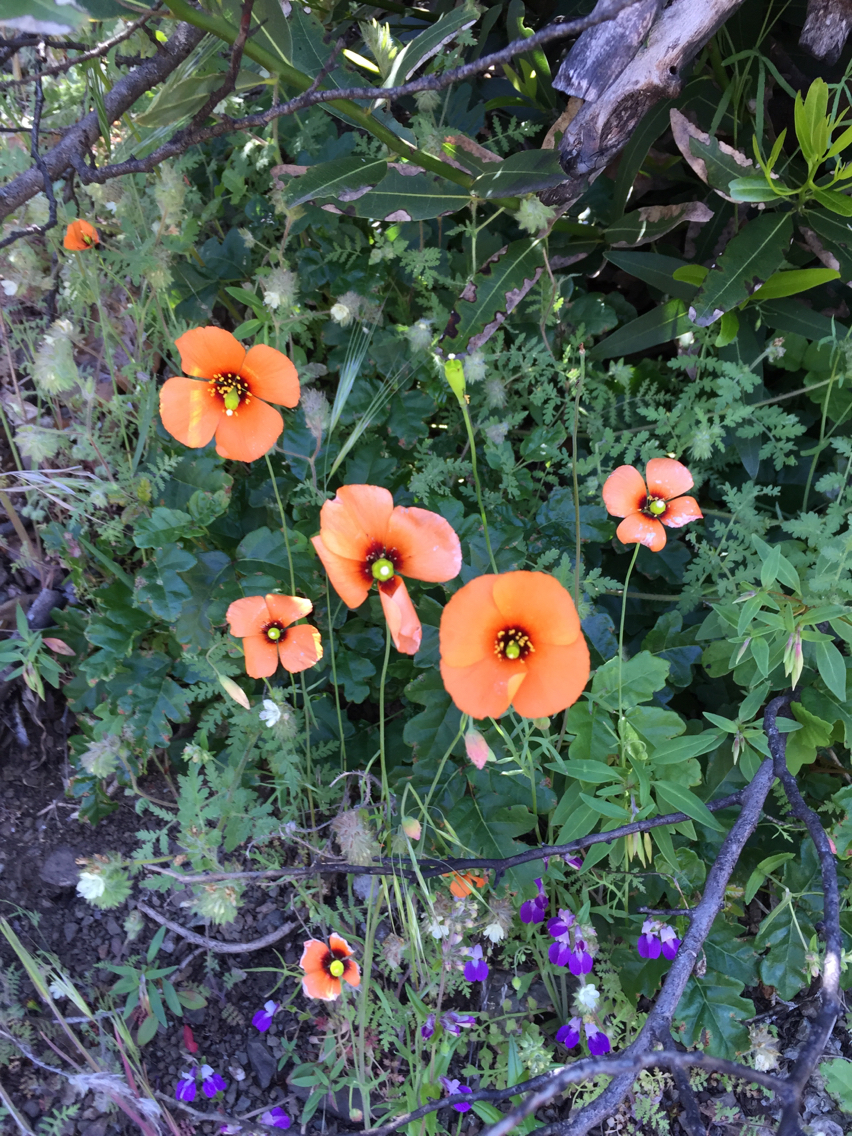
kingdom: Plantae
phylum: Tracheophyta
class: Magnoliopsida
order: Ranunculales
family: Papaveraceae
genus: Stylomecon
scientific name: Stylomecon heterophylla
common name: Flaming-poppy
